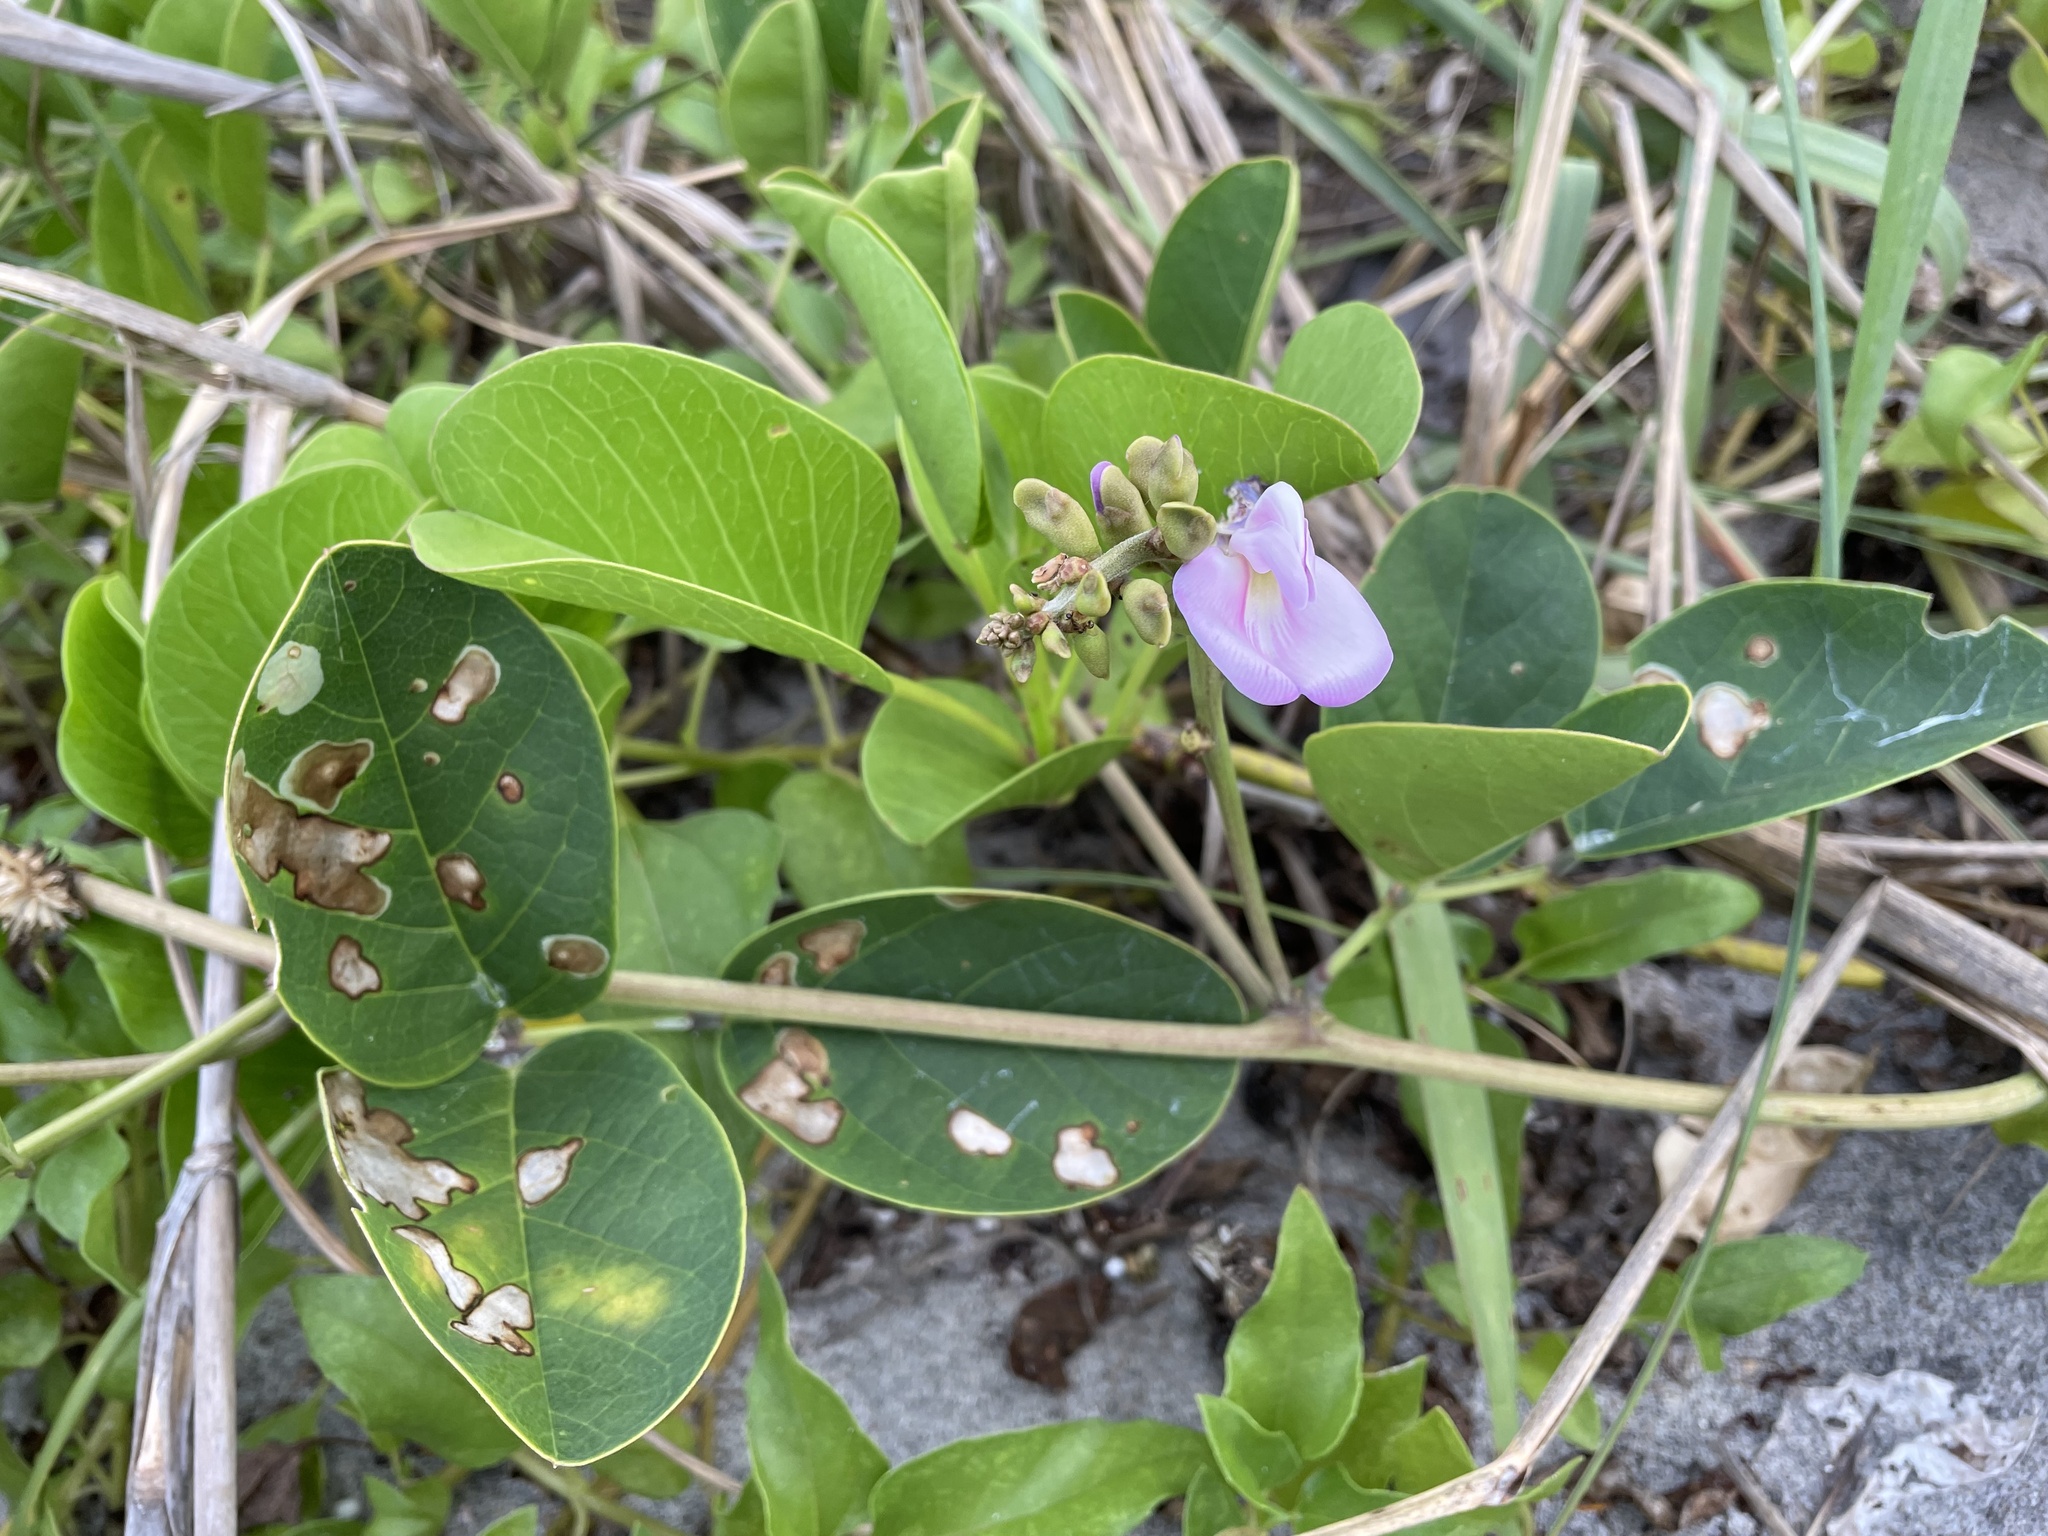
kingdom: Plantae
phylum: Tracheophyta
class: Magnoliopsida
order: Fabales
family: Fabaceae
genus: Canavalia
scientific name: Canavalia rosea
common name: Beach-bean
